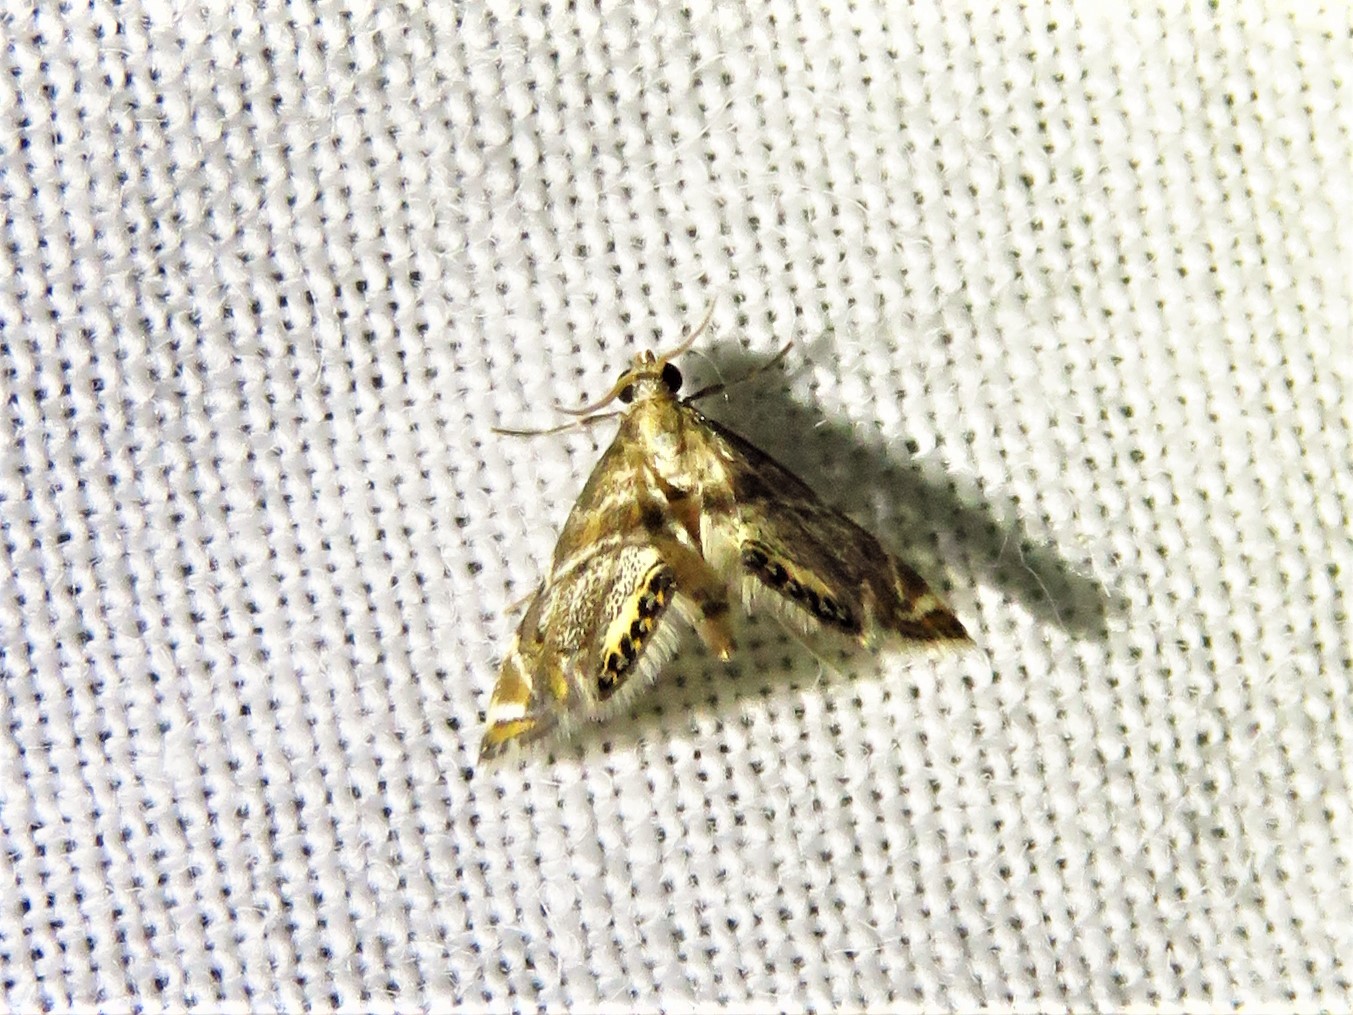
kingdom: Animalia
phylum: Arthropoda
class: Insecta
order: Lepidoptera
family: Crambidae
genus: Petrophila
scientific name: Petrophila fulicalis
